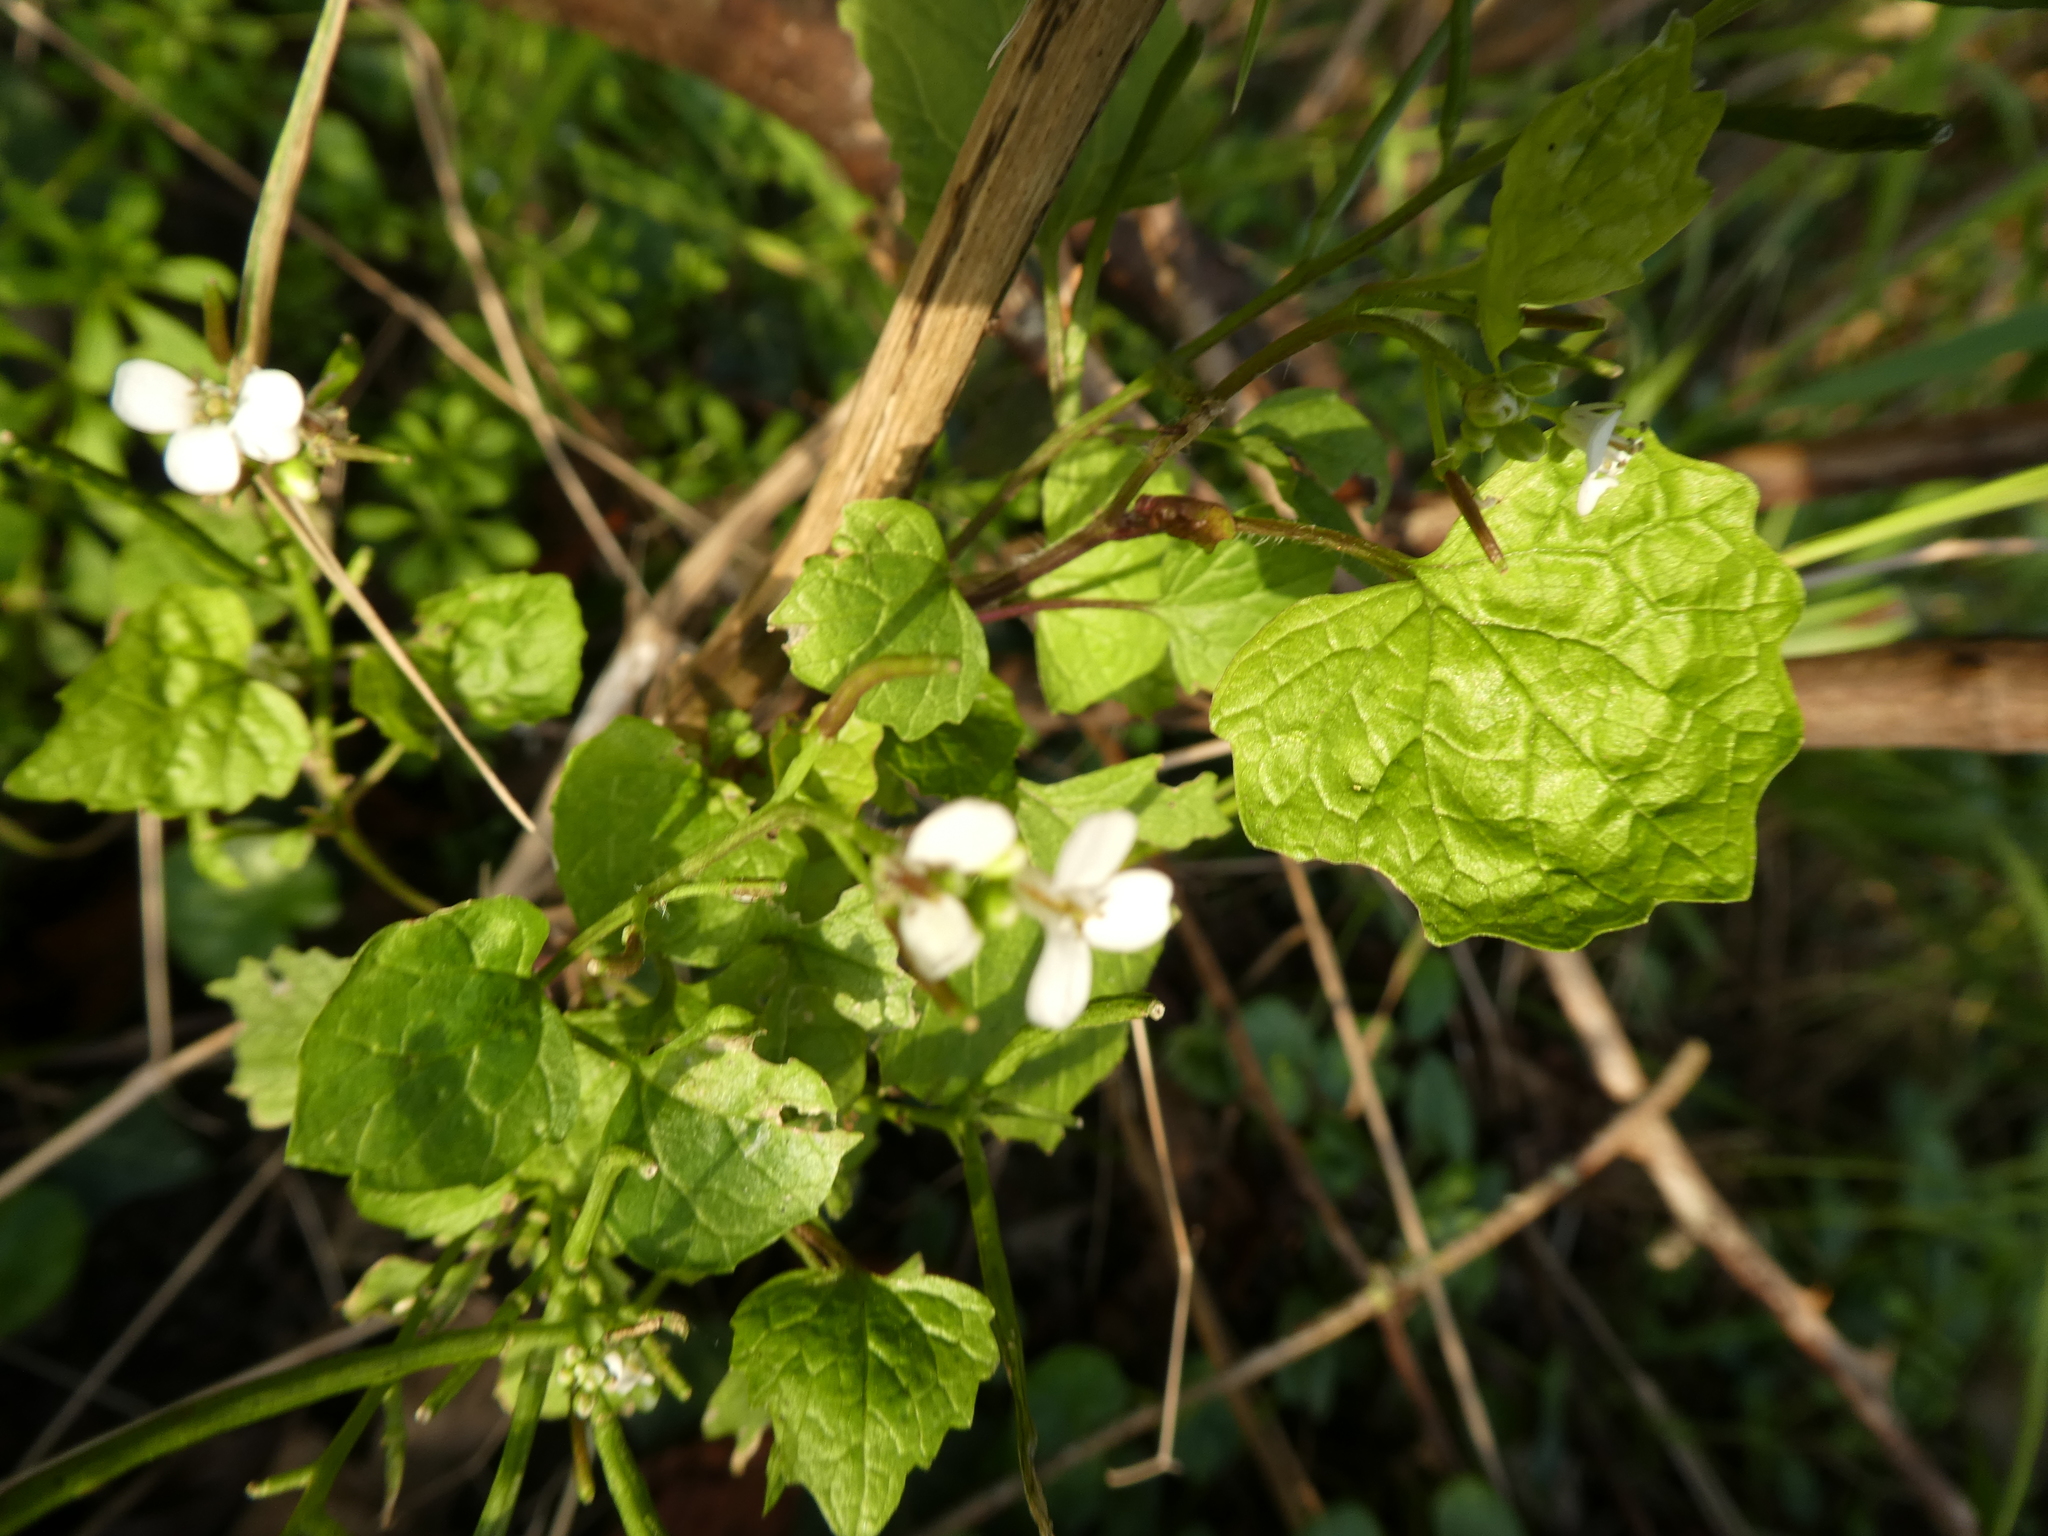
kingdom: Plantae
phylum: Tracheophyta
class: Magnoliopsida
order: Brassicales
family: Brassicaceae
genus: Alliaria
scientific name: Alliaria petiolata
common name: Garlic mustard
